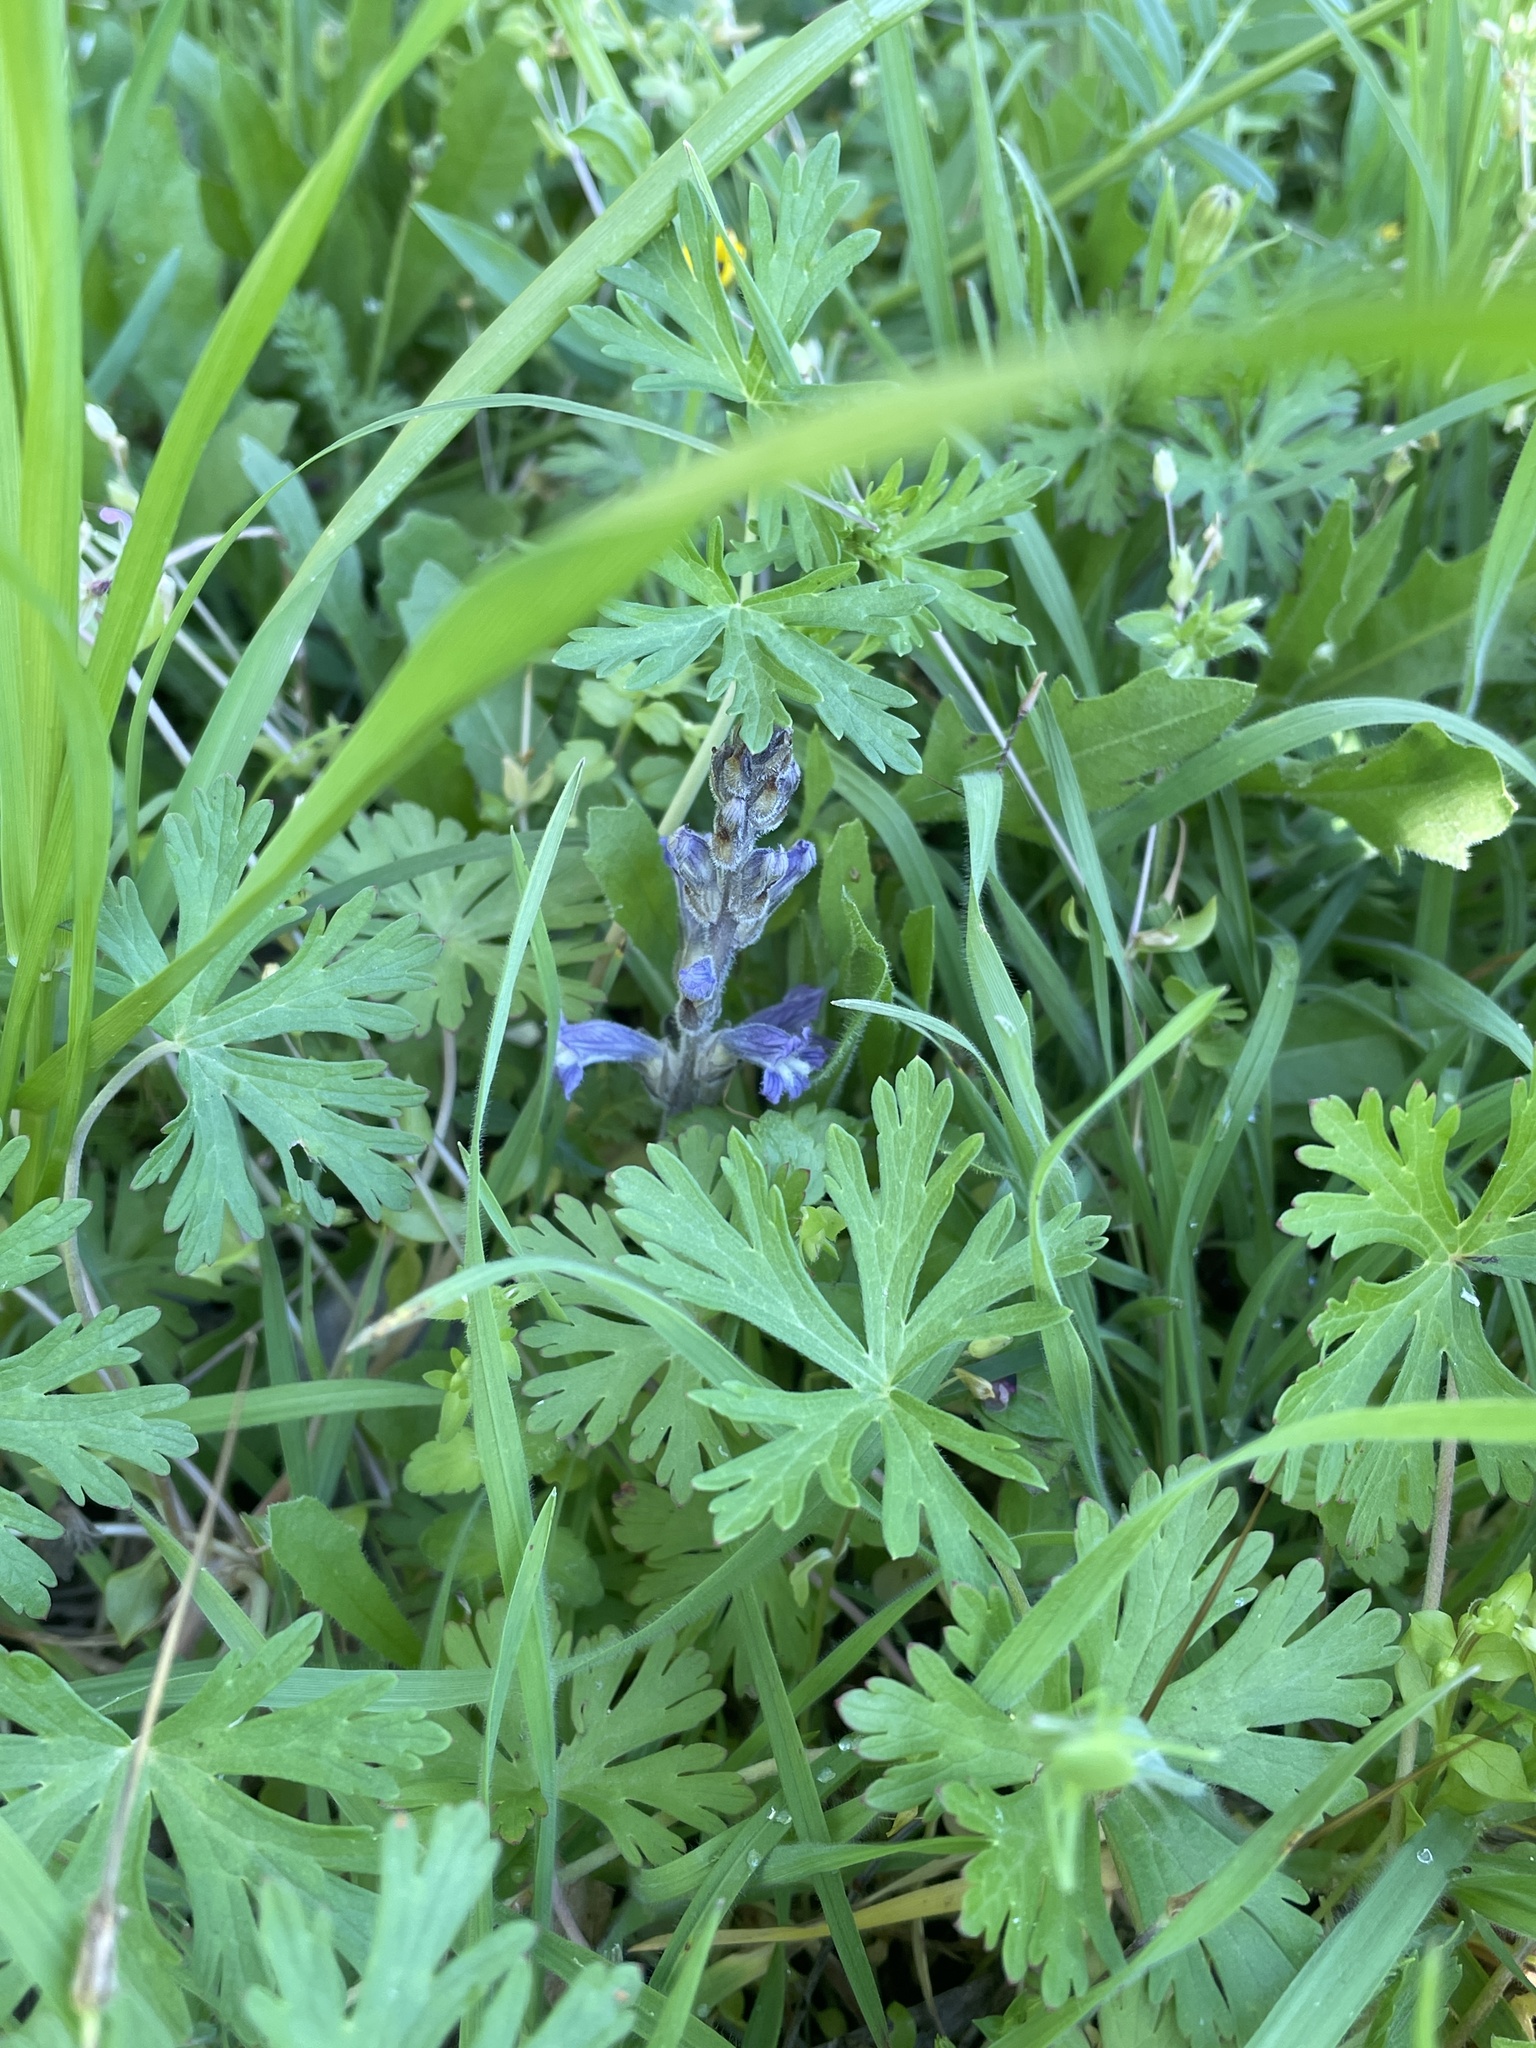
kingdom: Plantae
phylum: Tracheophyta
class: Magnoliopsida
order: Lamiales
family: Orobanchaceae
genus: Phelipanche
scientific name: Phelipanche mutelii
